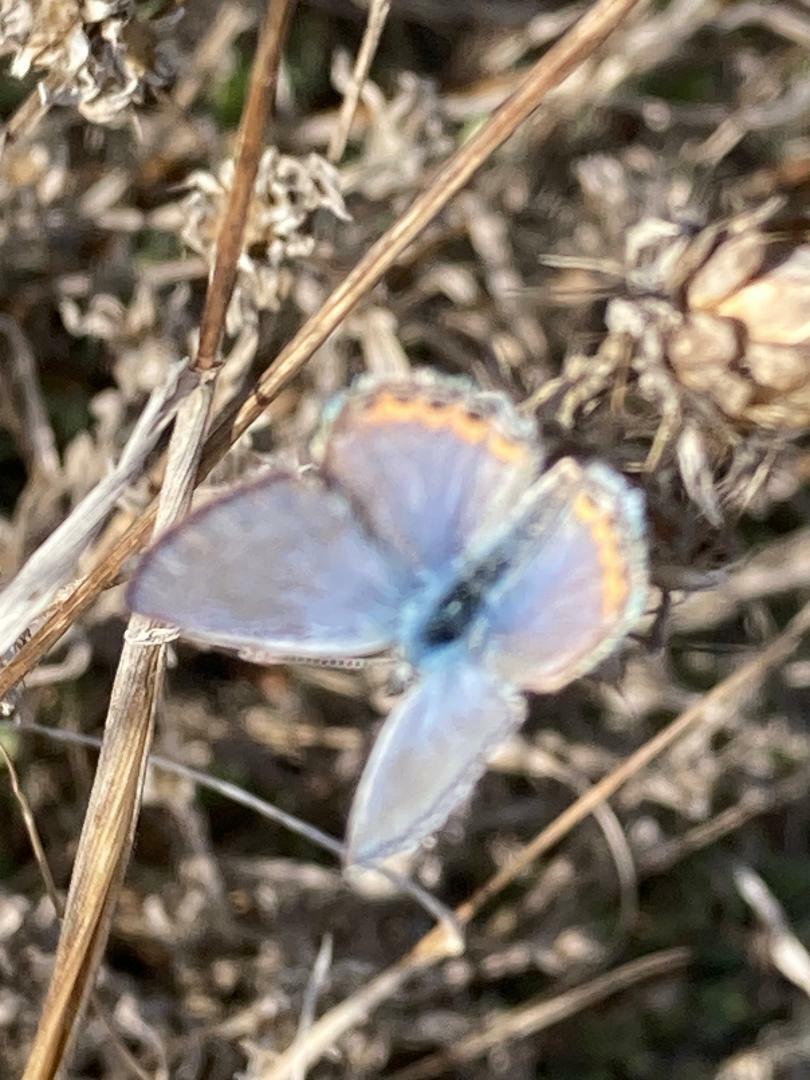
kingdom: Animalia
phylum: Arthropoda
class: Insecta
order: Lepidoptera
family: Lycaenidae
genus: Icaricia
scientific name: Icaricia acmon
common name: Acmon blue
